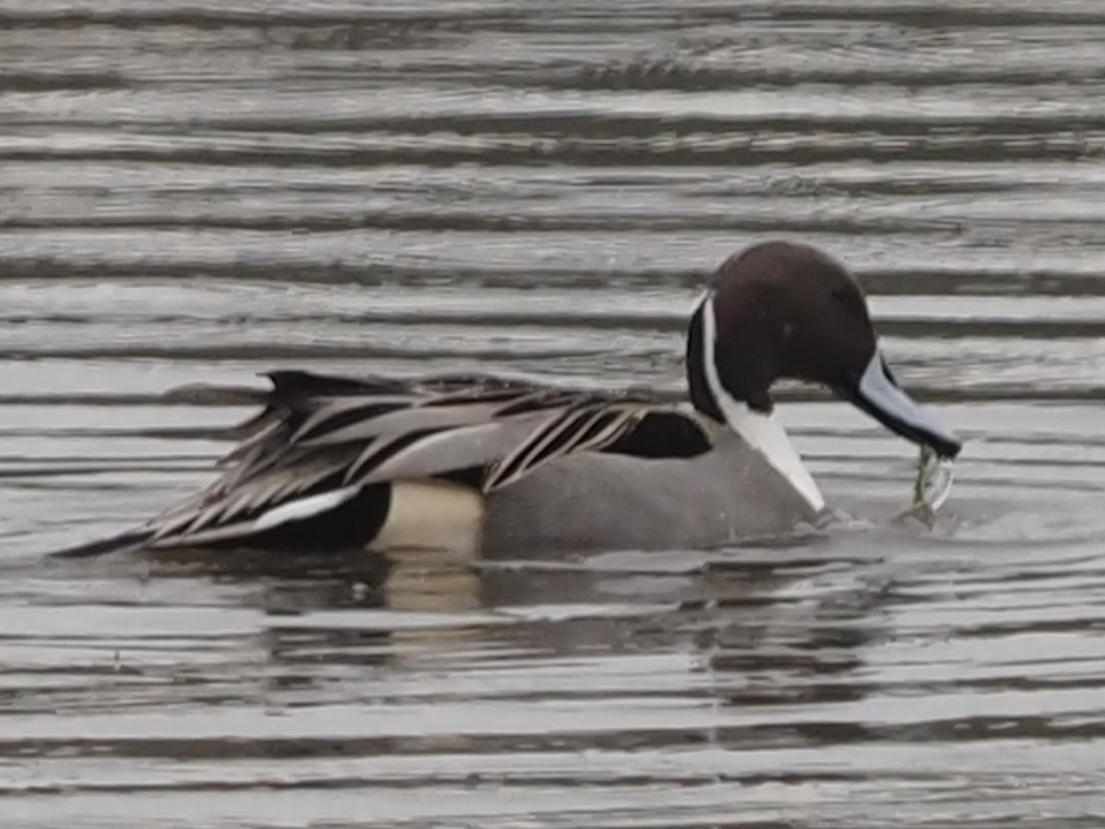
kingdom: Animalia
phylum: Chordata
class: Aves
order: Anseriformes
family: Anatidae
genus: Anas
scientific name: Anas acuta
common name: Northern pintail
